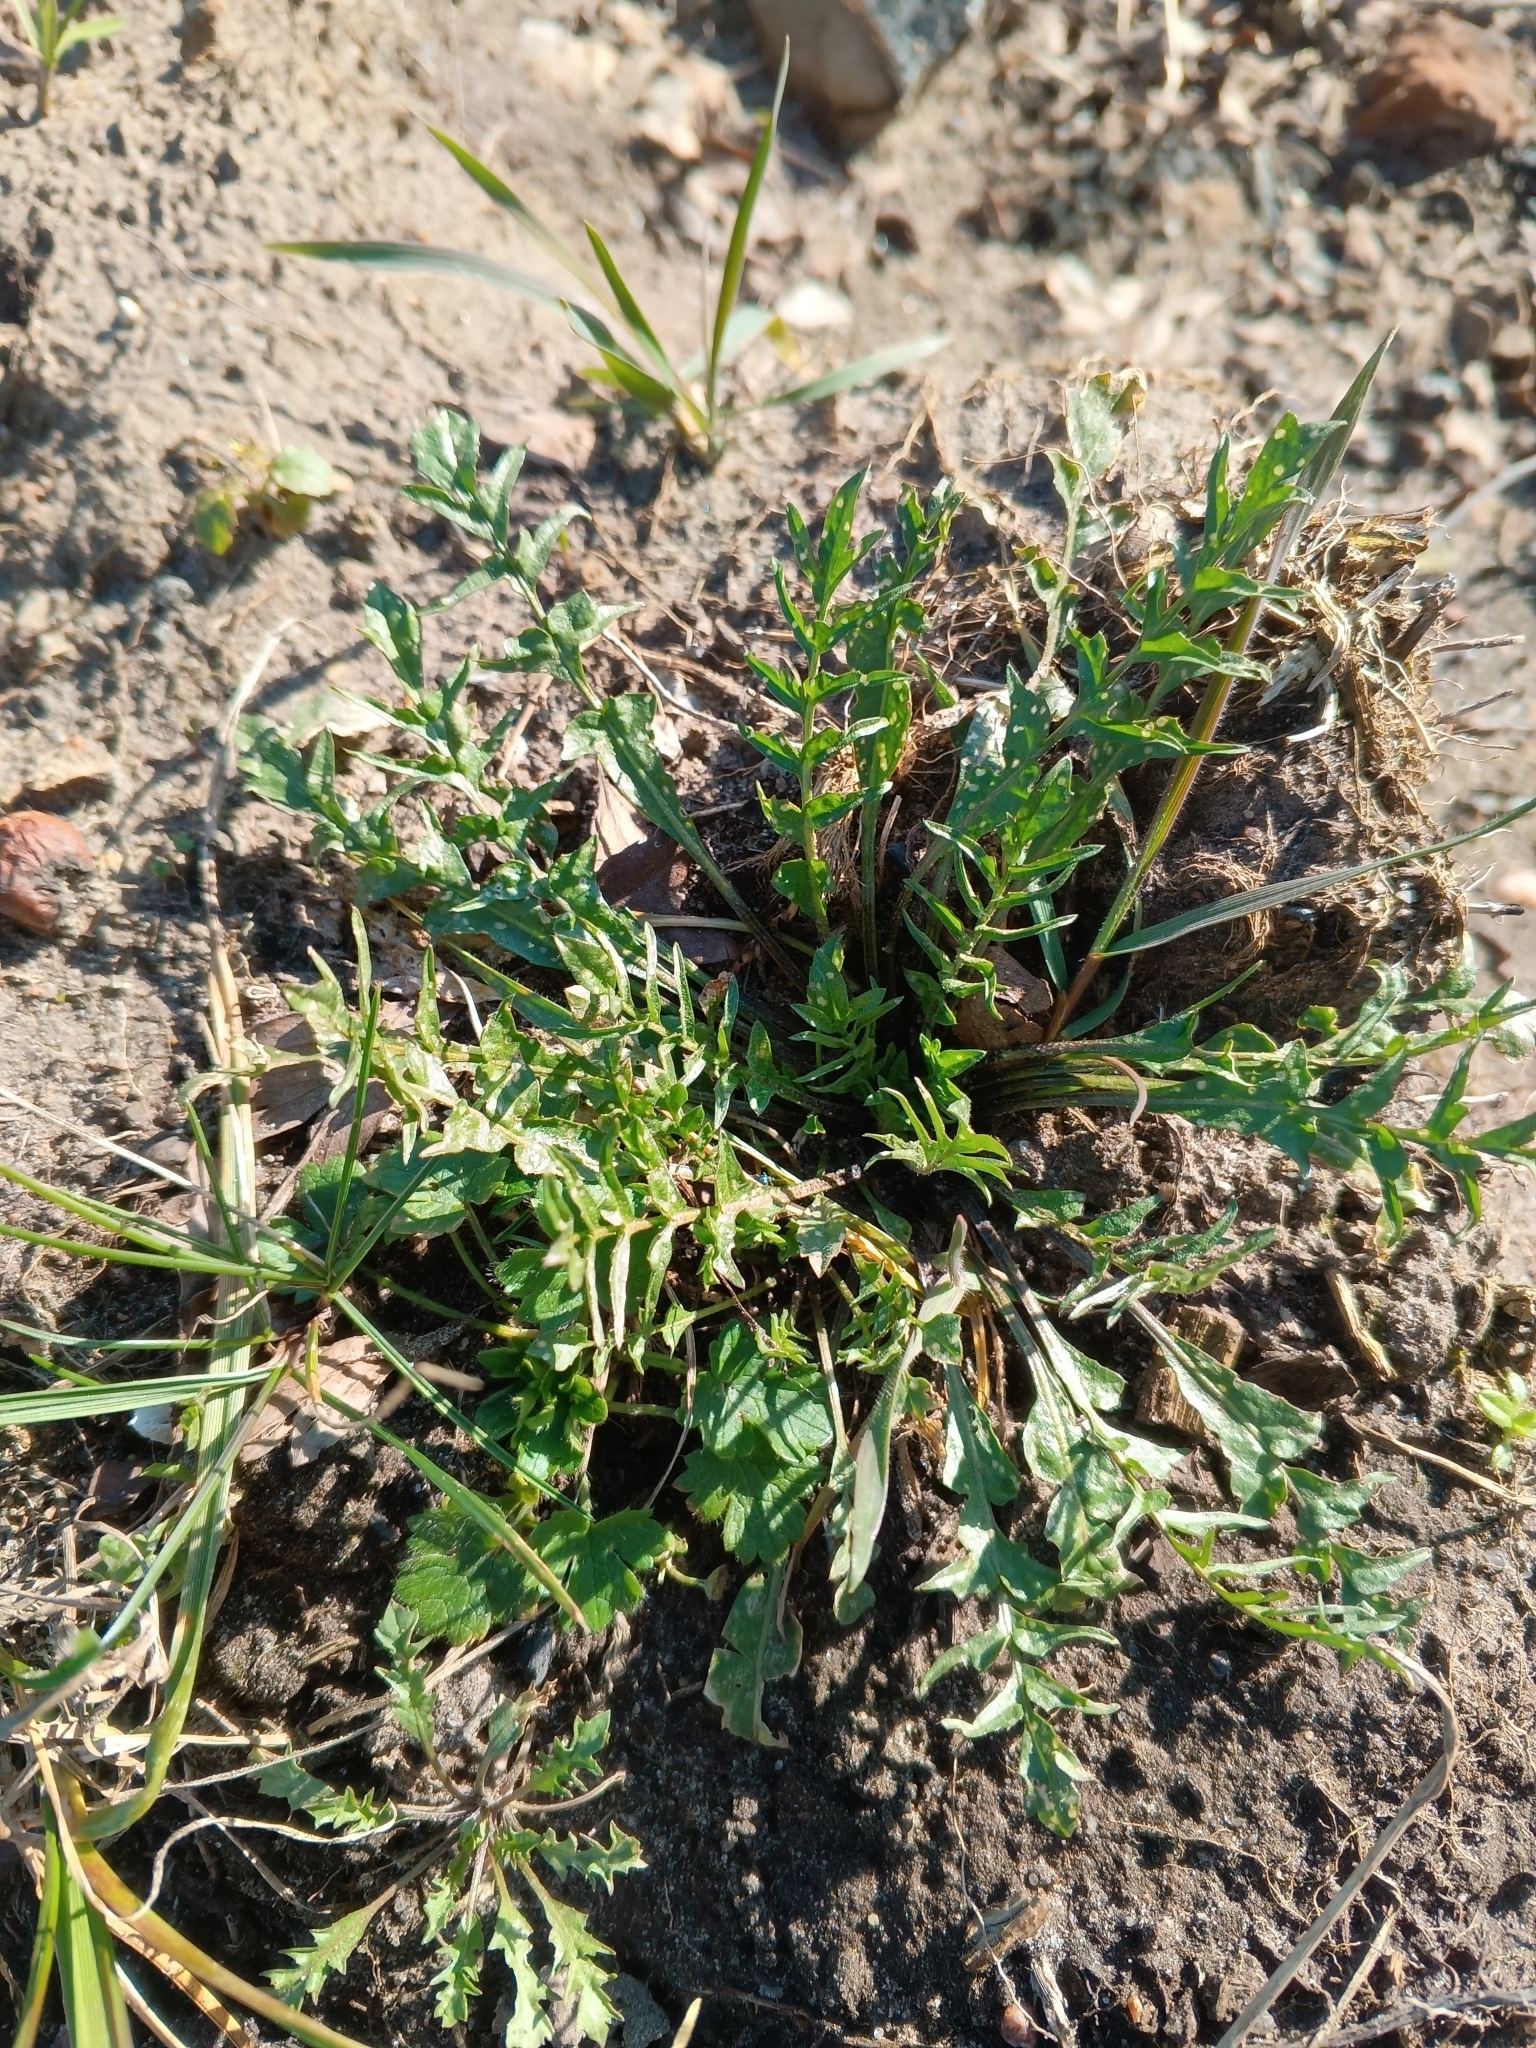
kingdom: Plantae
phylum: Tracheophyta
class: Magnoliopsida
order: Brassicales
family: Brassicaceae
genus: Capsella
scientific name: Capsella bursa-pastoris
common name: Shepherd's purse
